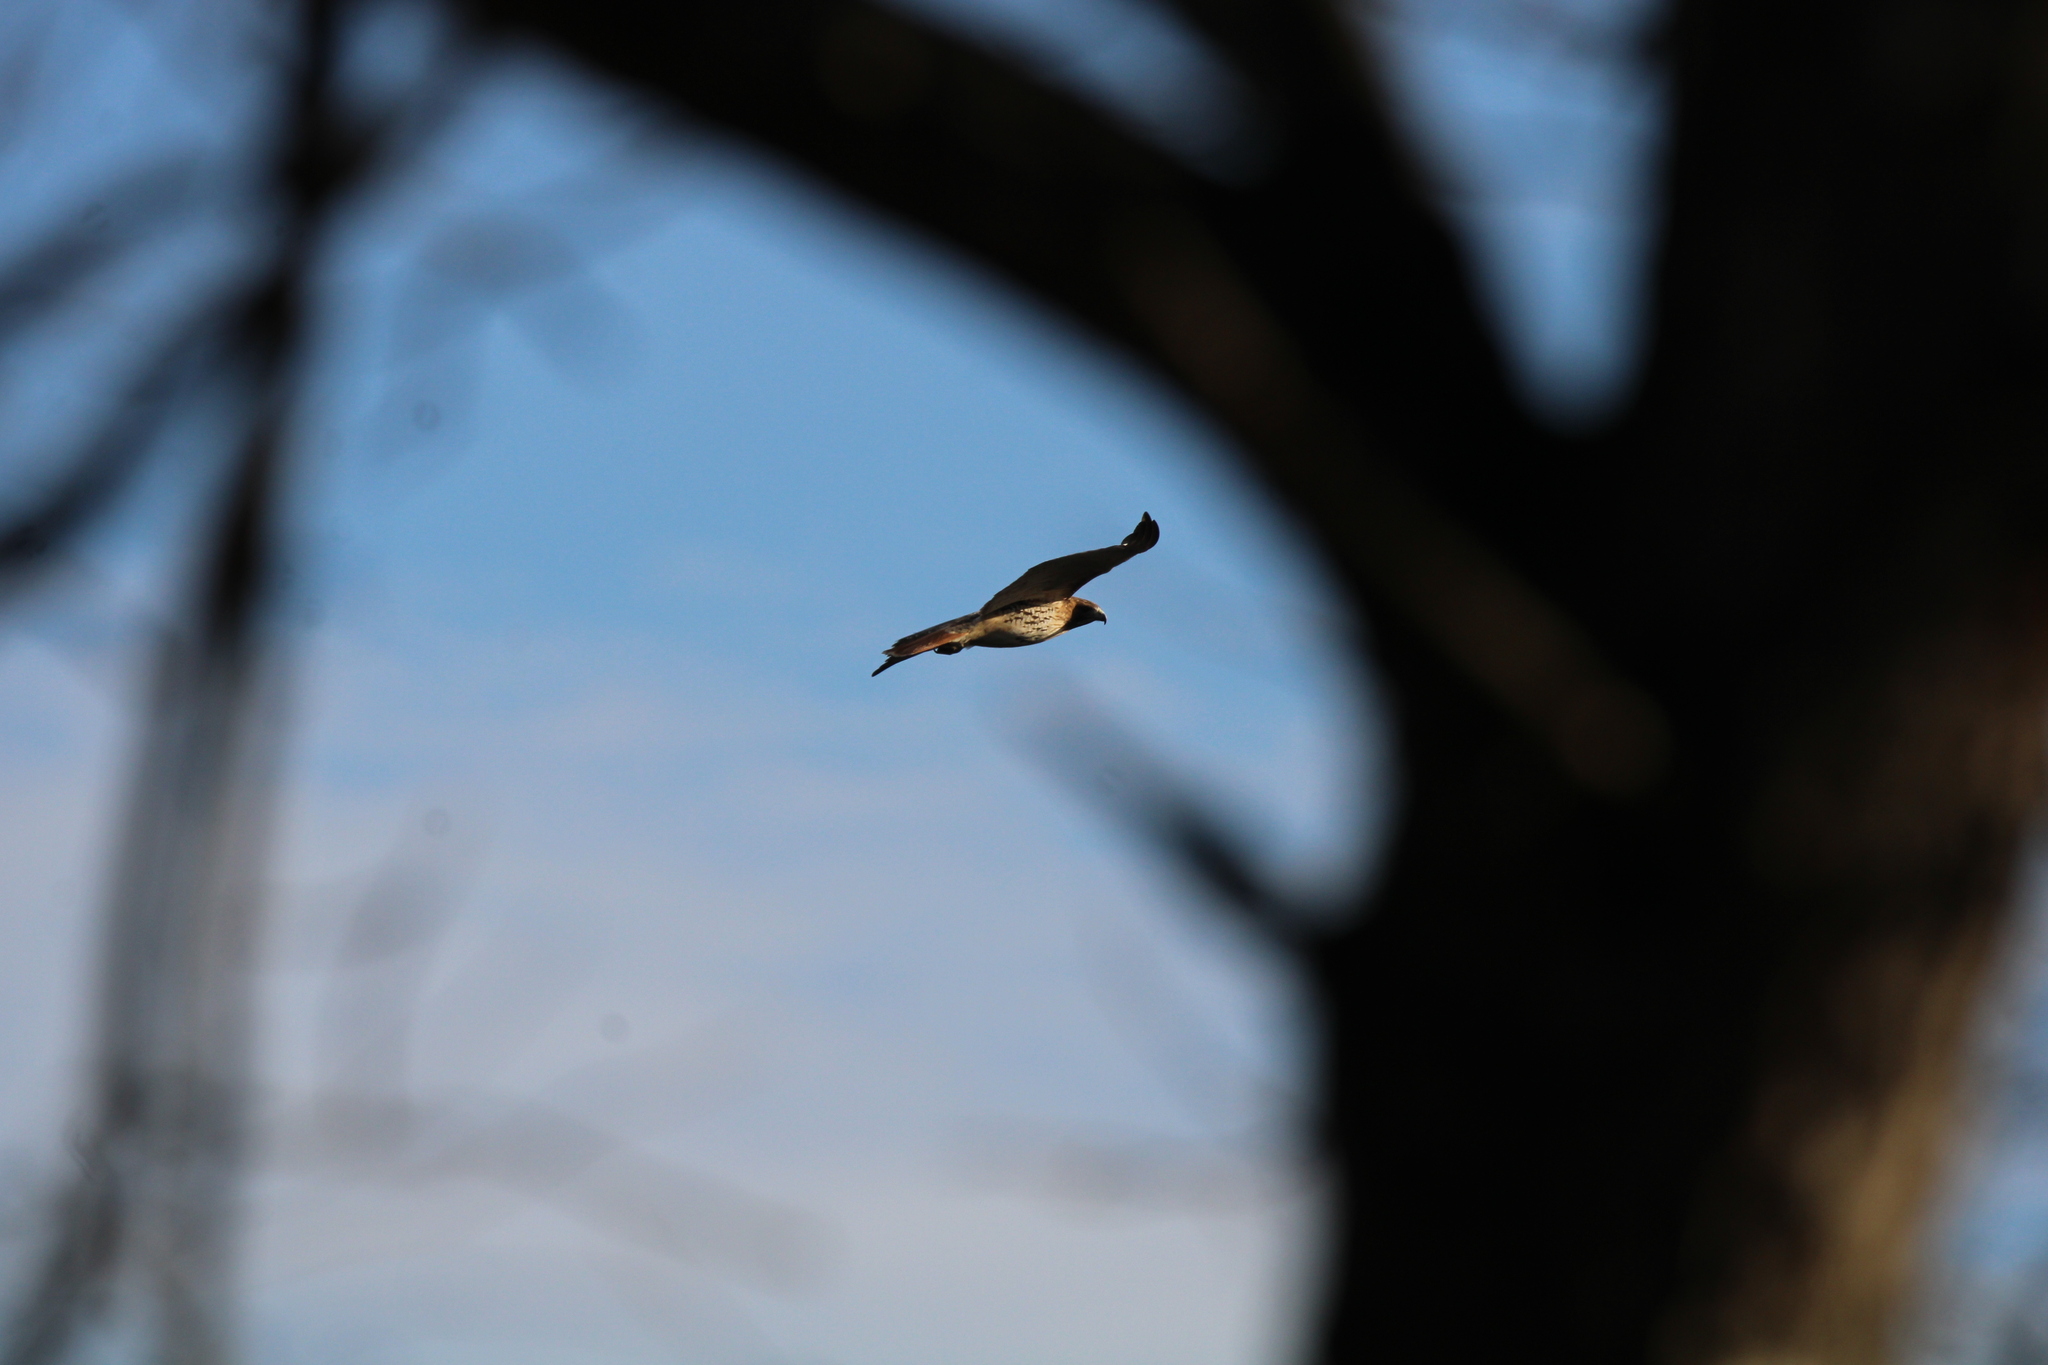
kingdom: Animalia
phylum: Chordata
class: Aves
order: Accipitriformes
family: Accipitridae
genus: Buteo
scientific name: Buteo jamaicensis
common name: Red-tailed hawk
